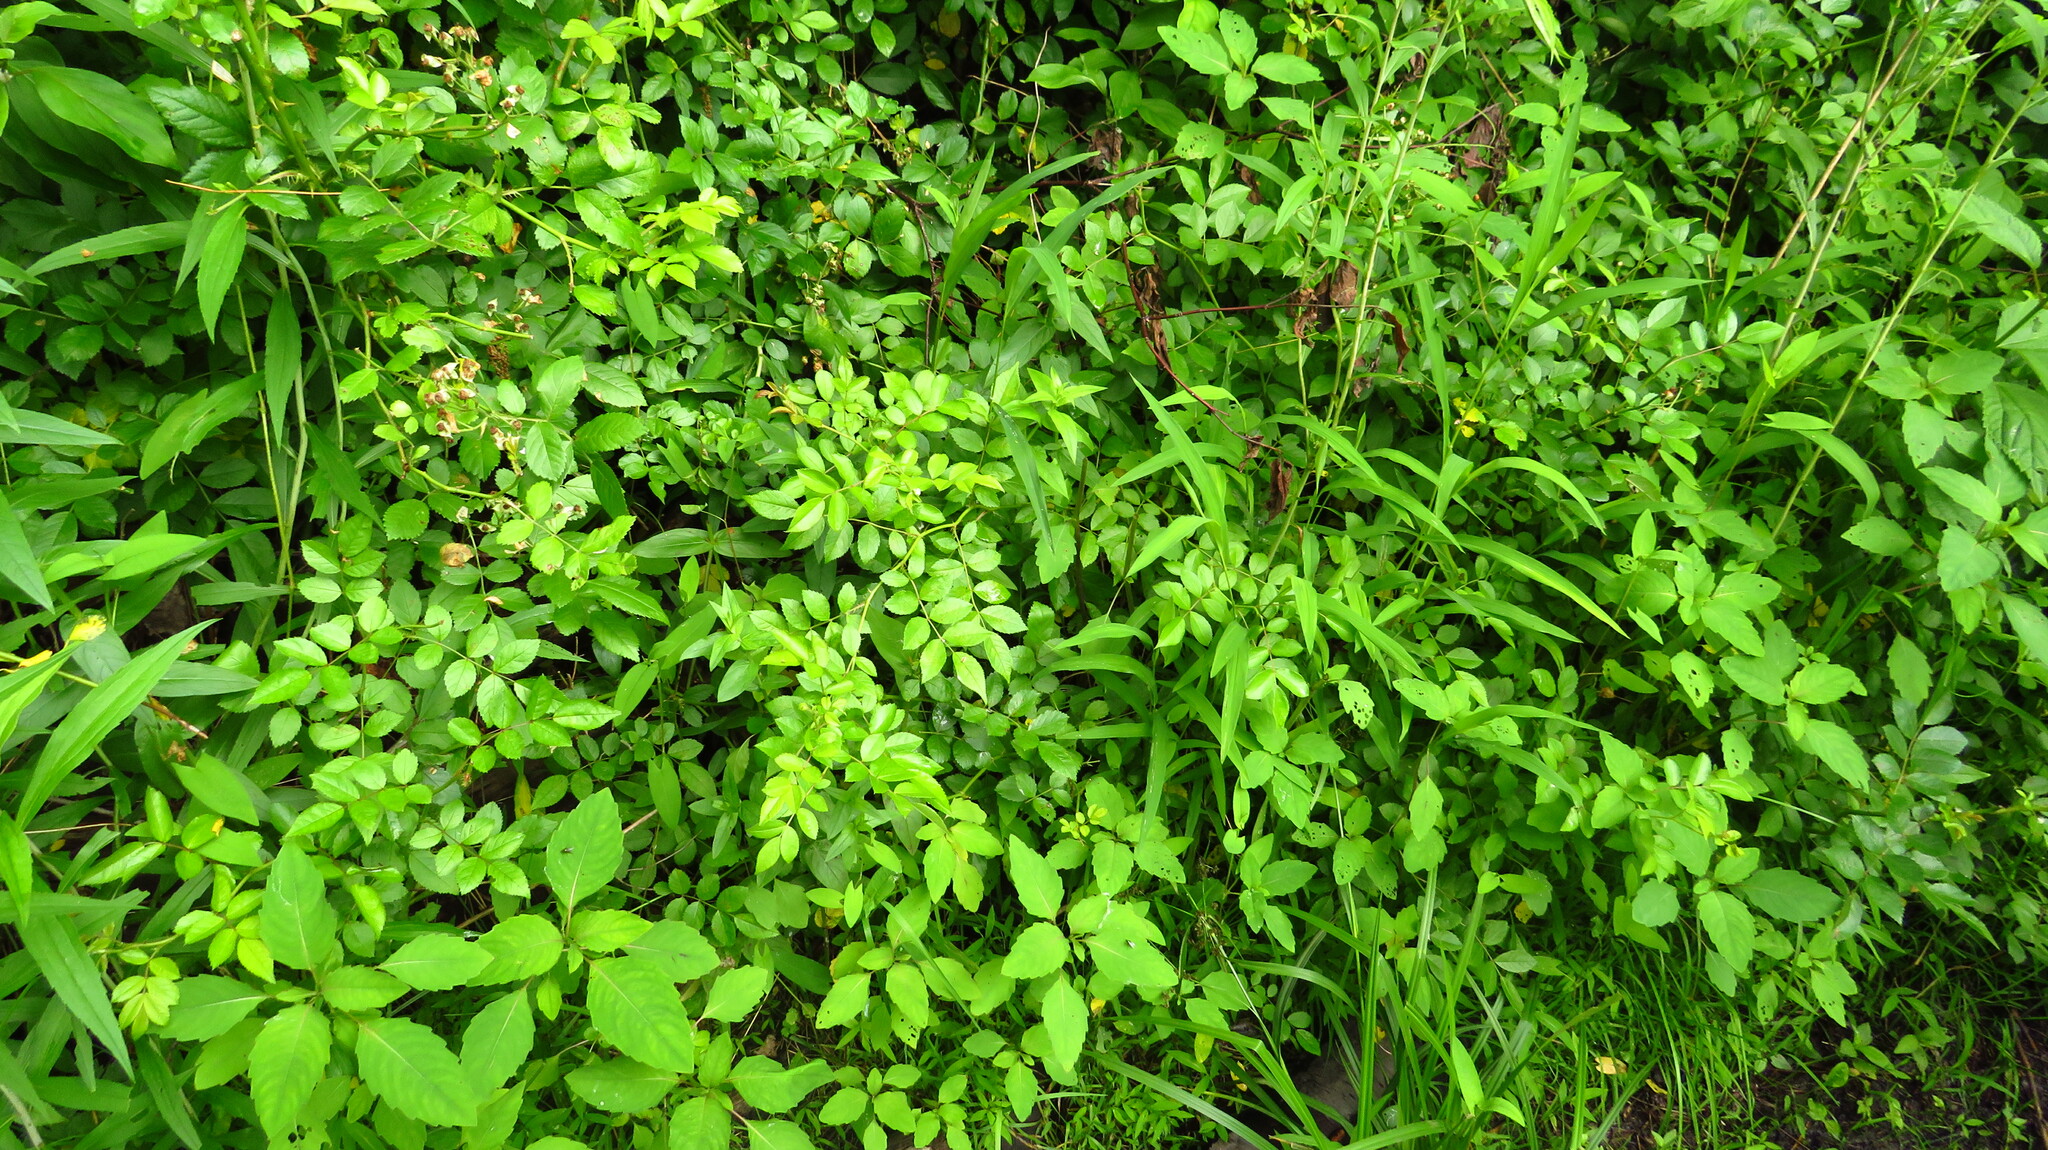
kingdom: Plantae
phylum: Tracheophyta
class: Magnoliopsida
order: Rosales
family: Rosaceae
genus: Rosa
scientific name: Rosa multiflora
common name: Multiflora rose
